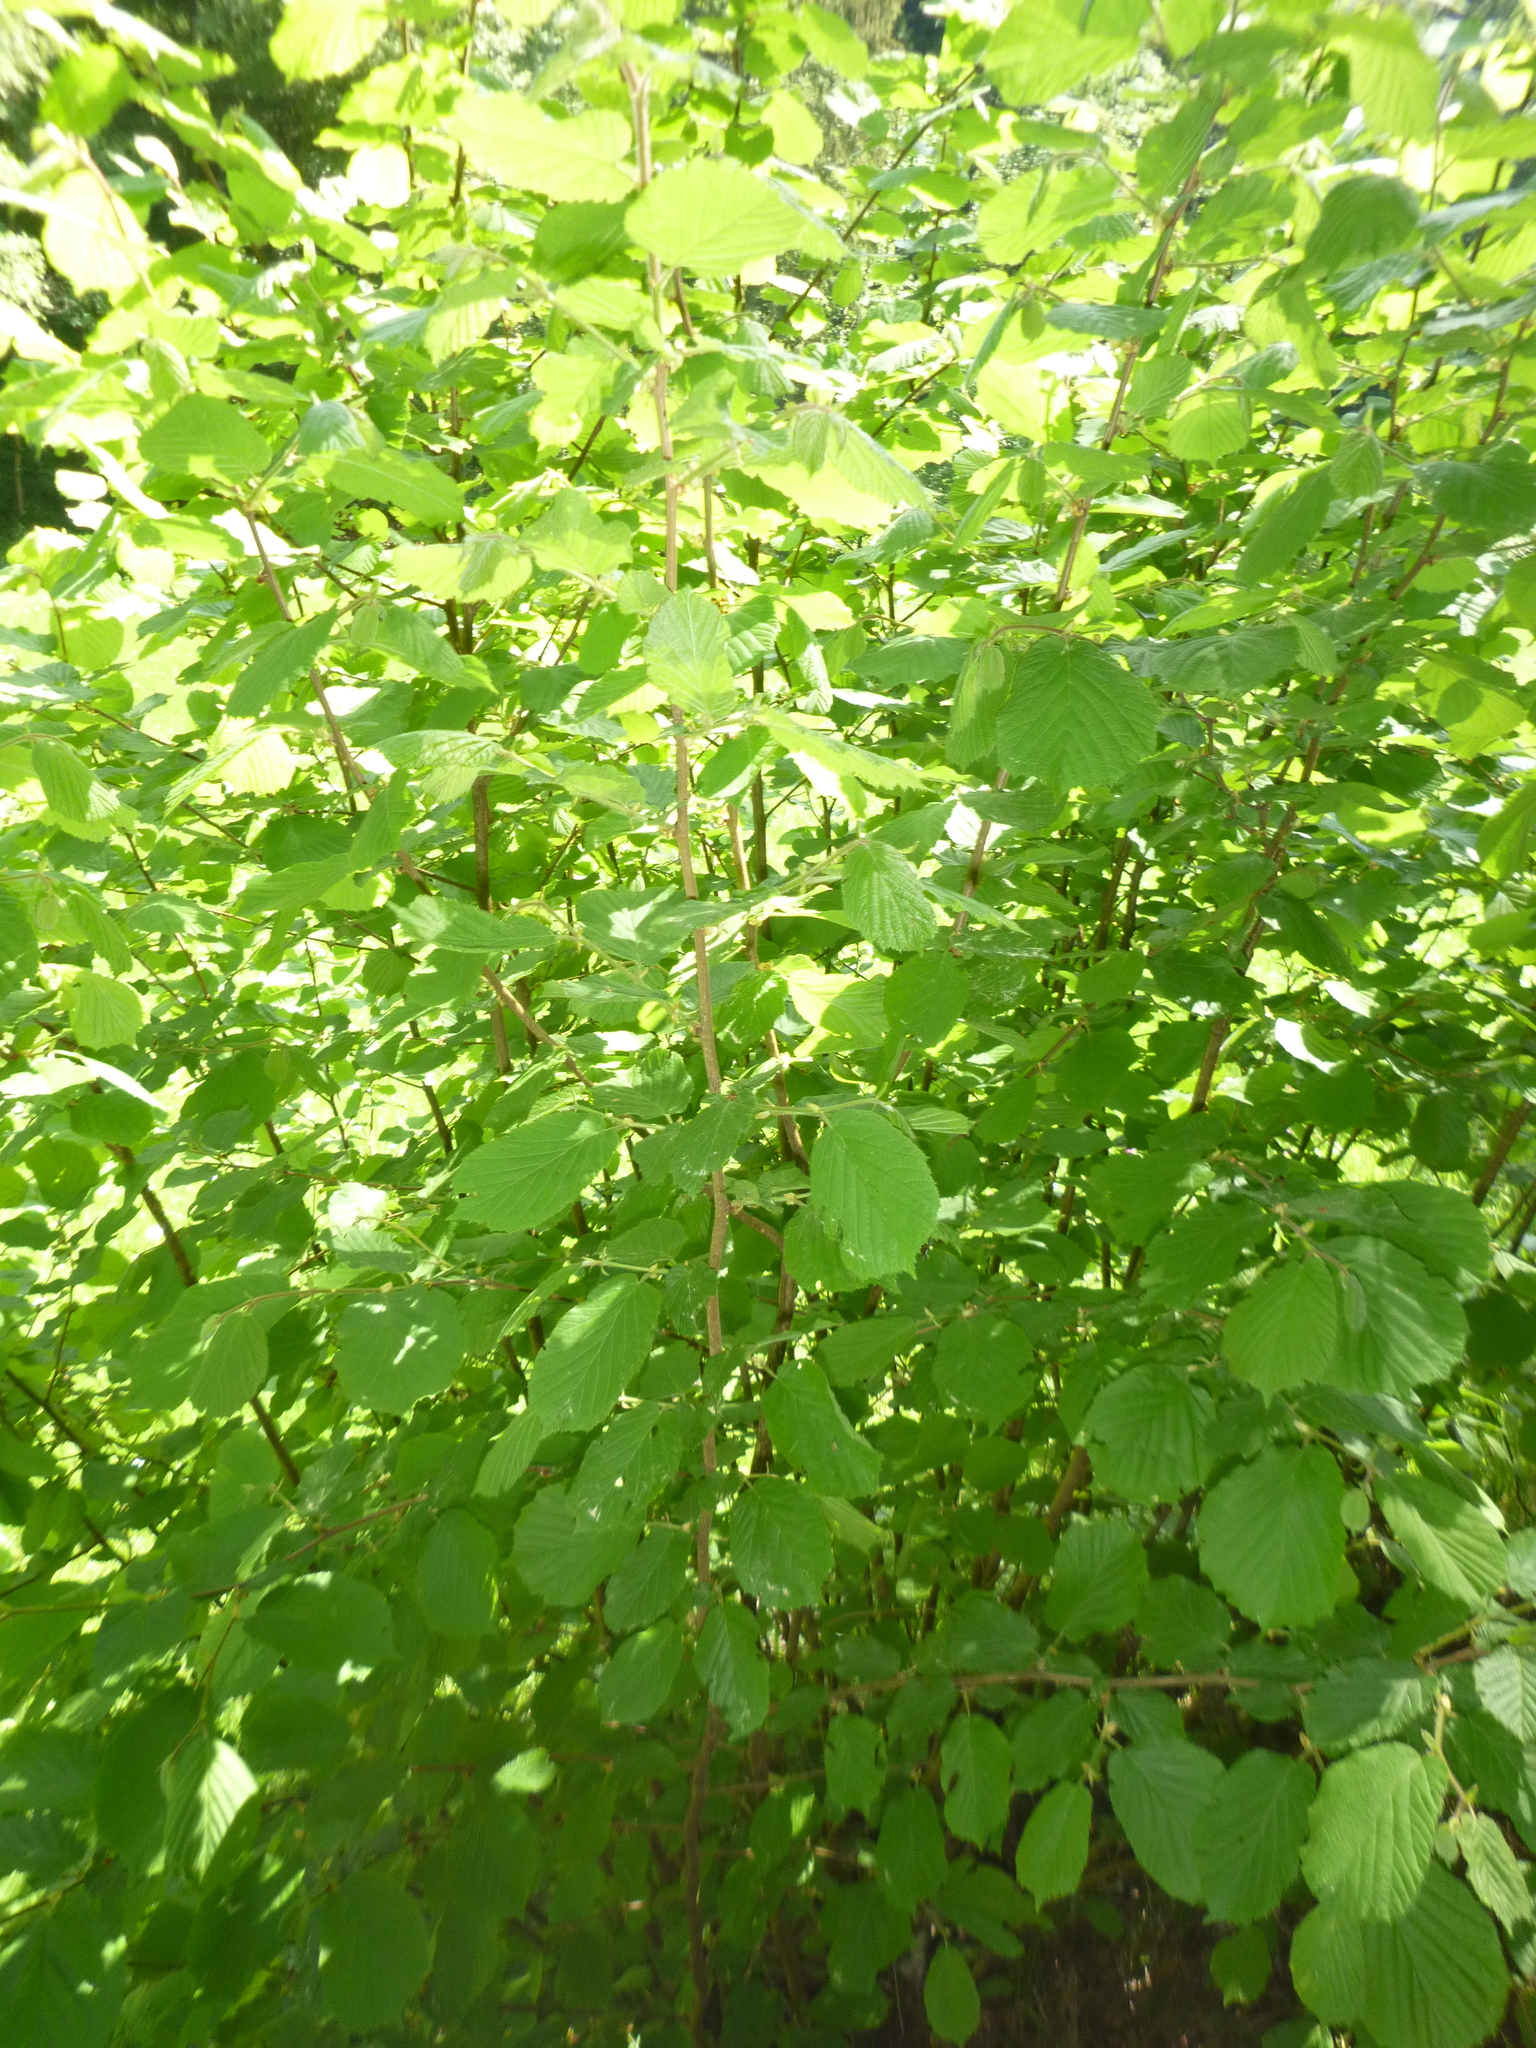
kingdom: Plantae
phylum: Tracheophyta
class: Magnoliopsida
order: Fagales
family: Betulaceae
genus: Corylus
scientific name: Corylus avellana
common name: European hazel
